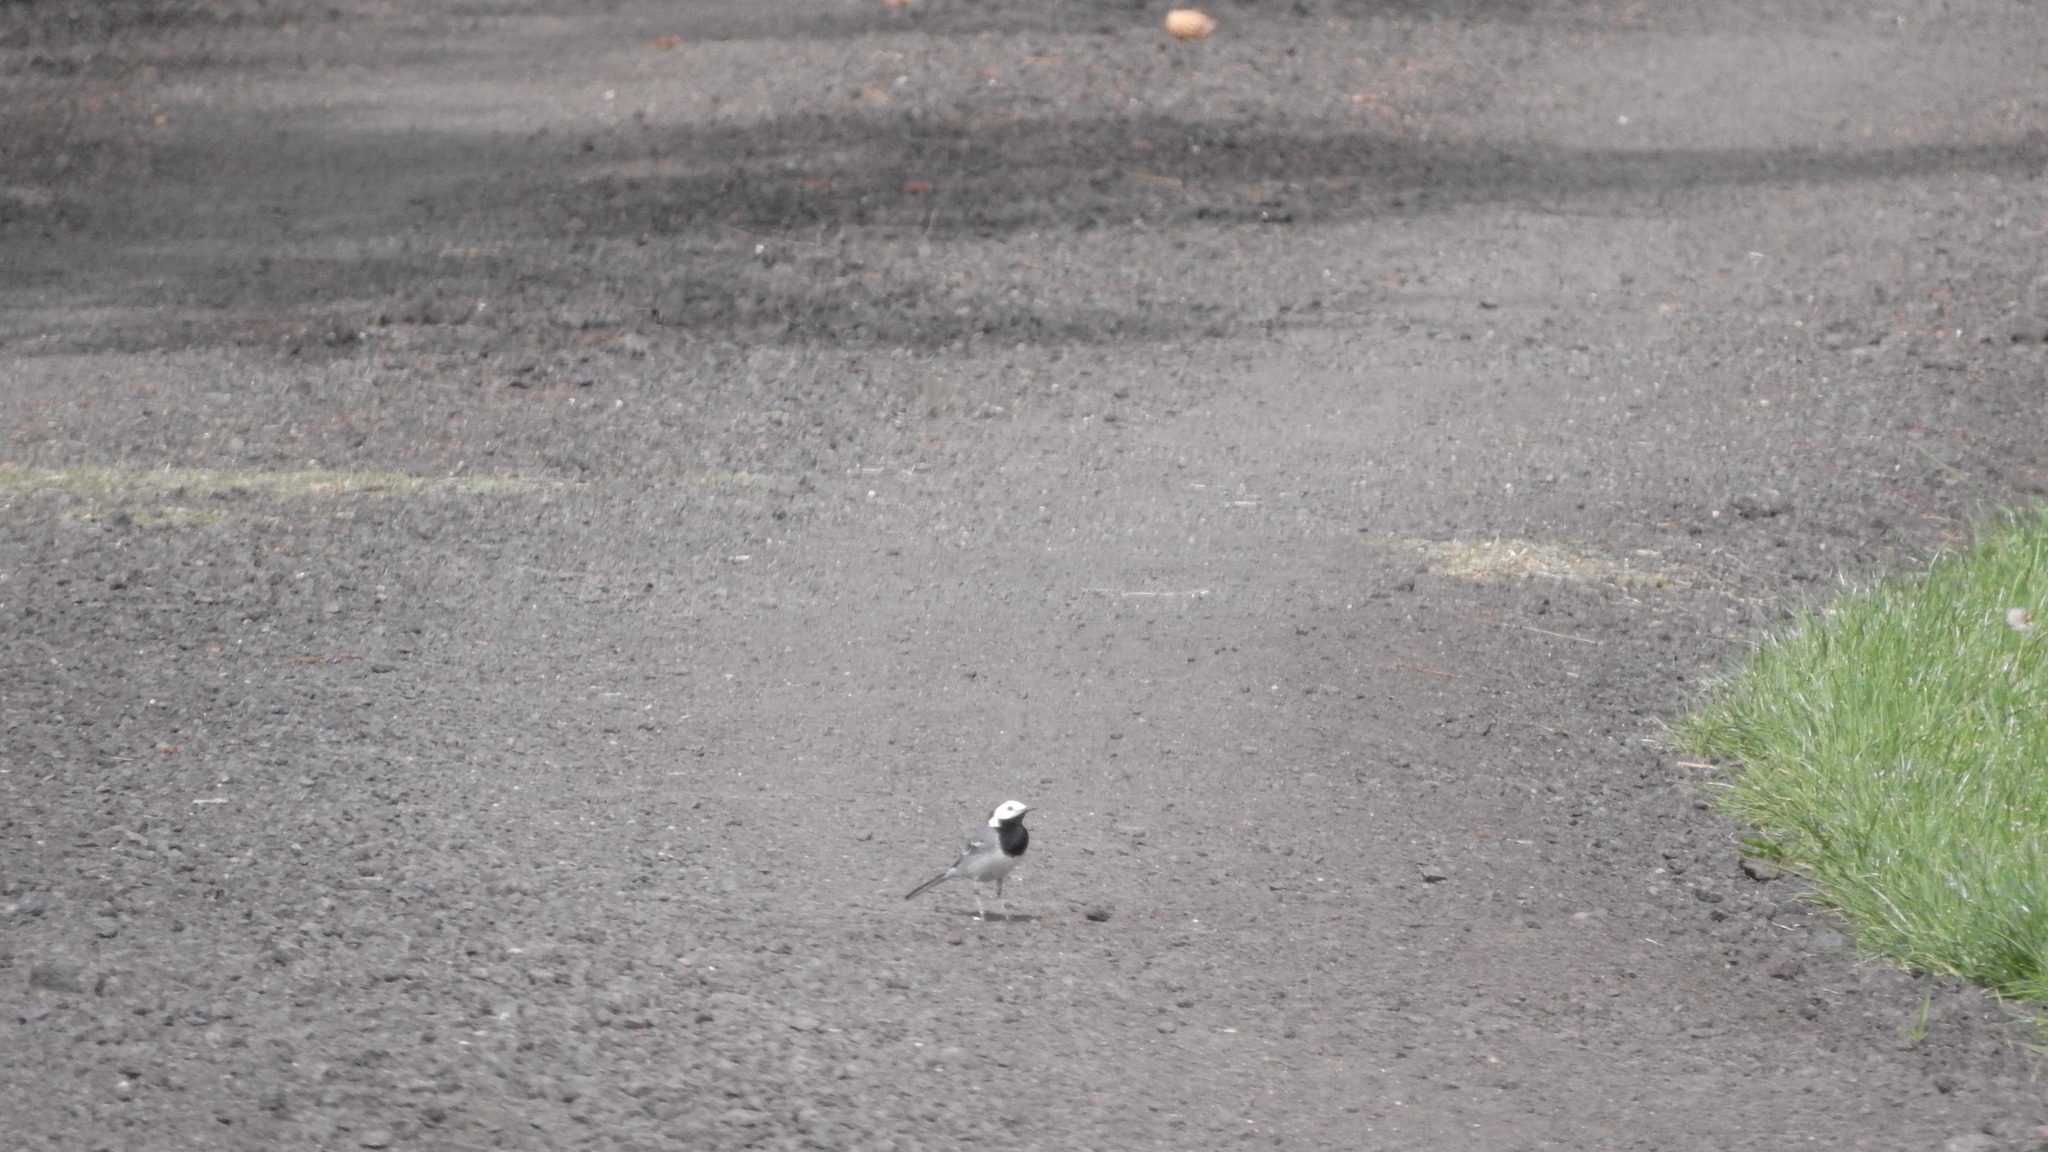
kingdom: Animalia
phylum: Chordata
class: Aves
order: Passeriformes
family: Motacillidae
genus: Motacilla
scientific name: Motacilla alba
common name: White wagtail
